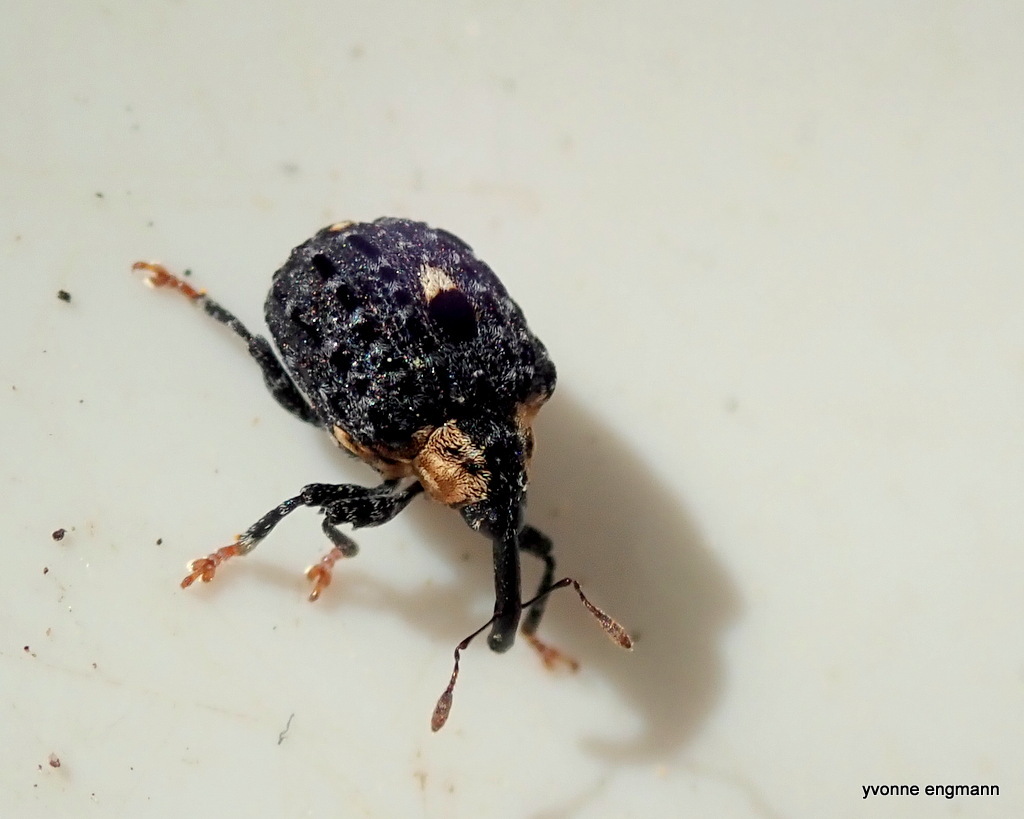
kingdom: Animalia
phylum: Arthropoda
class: Insecta
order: Coleoptera
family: Curculionidae
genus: Cionus
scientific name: Cionus tuberculosus
